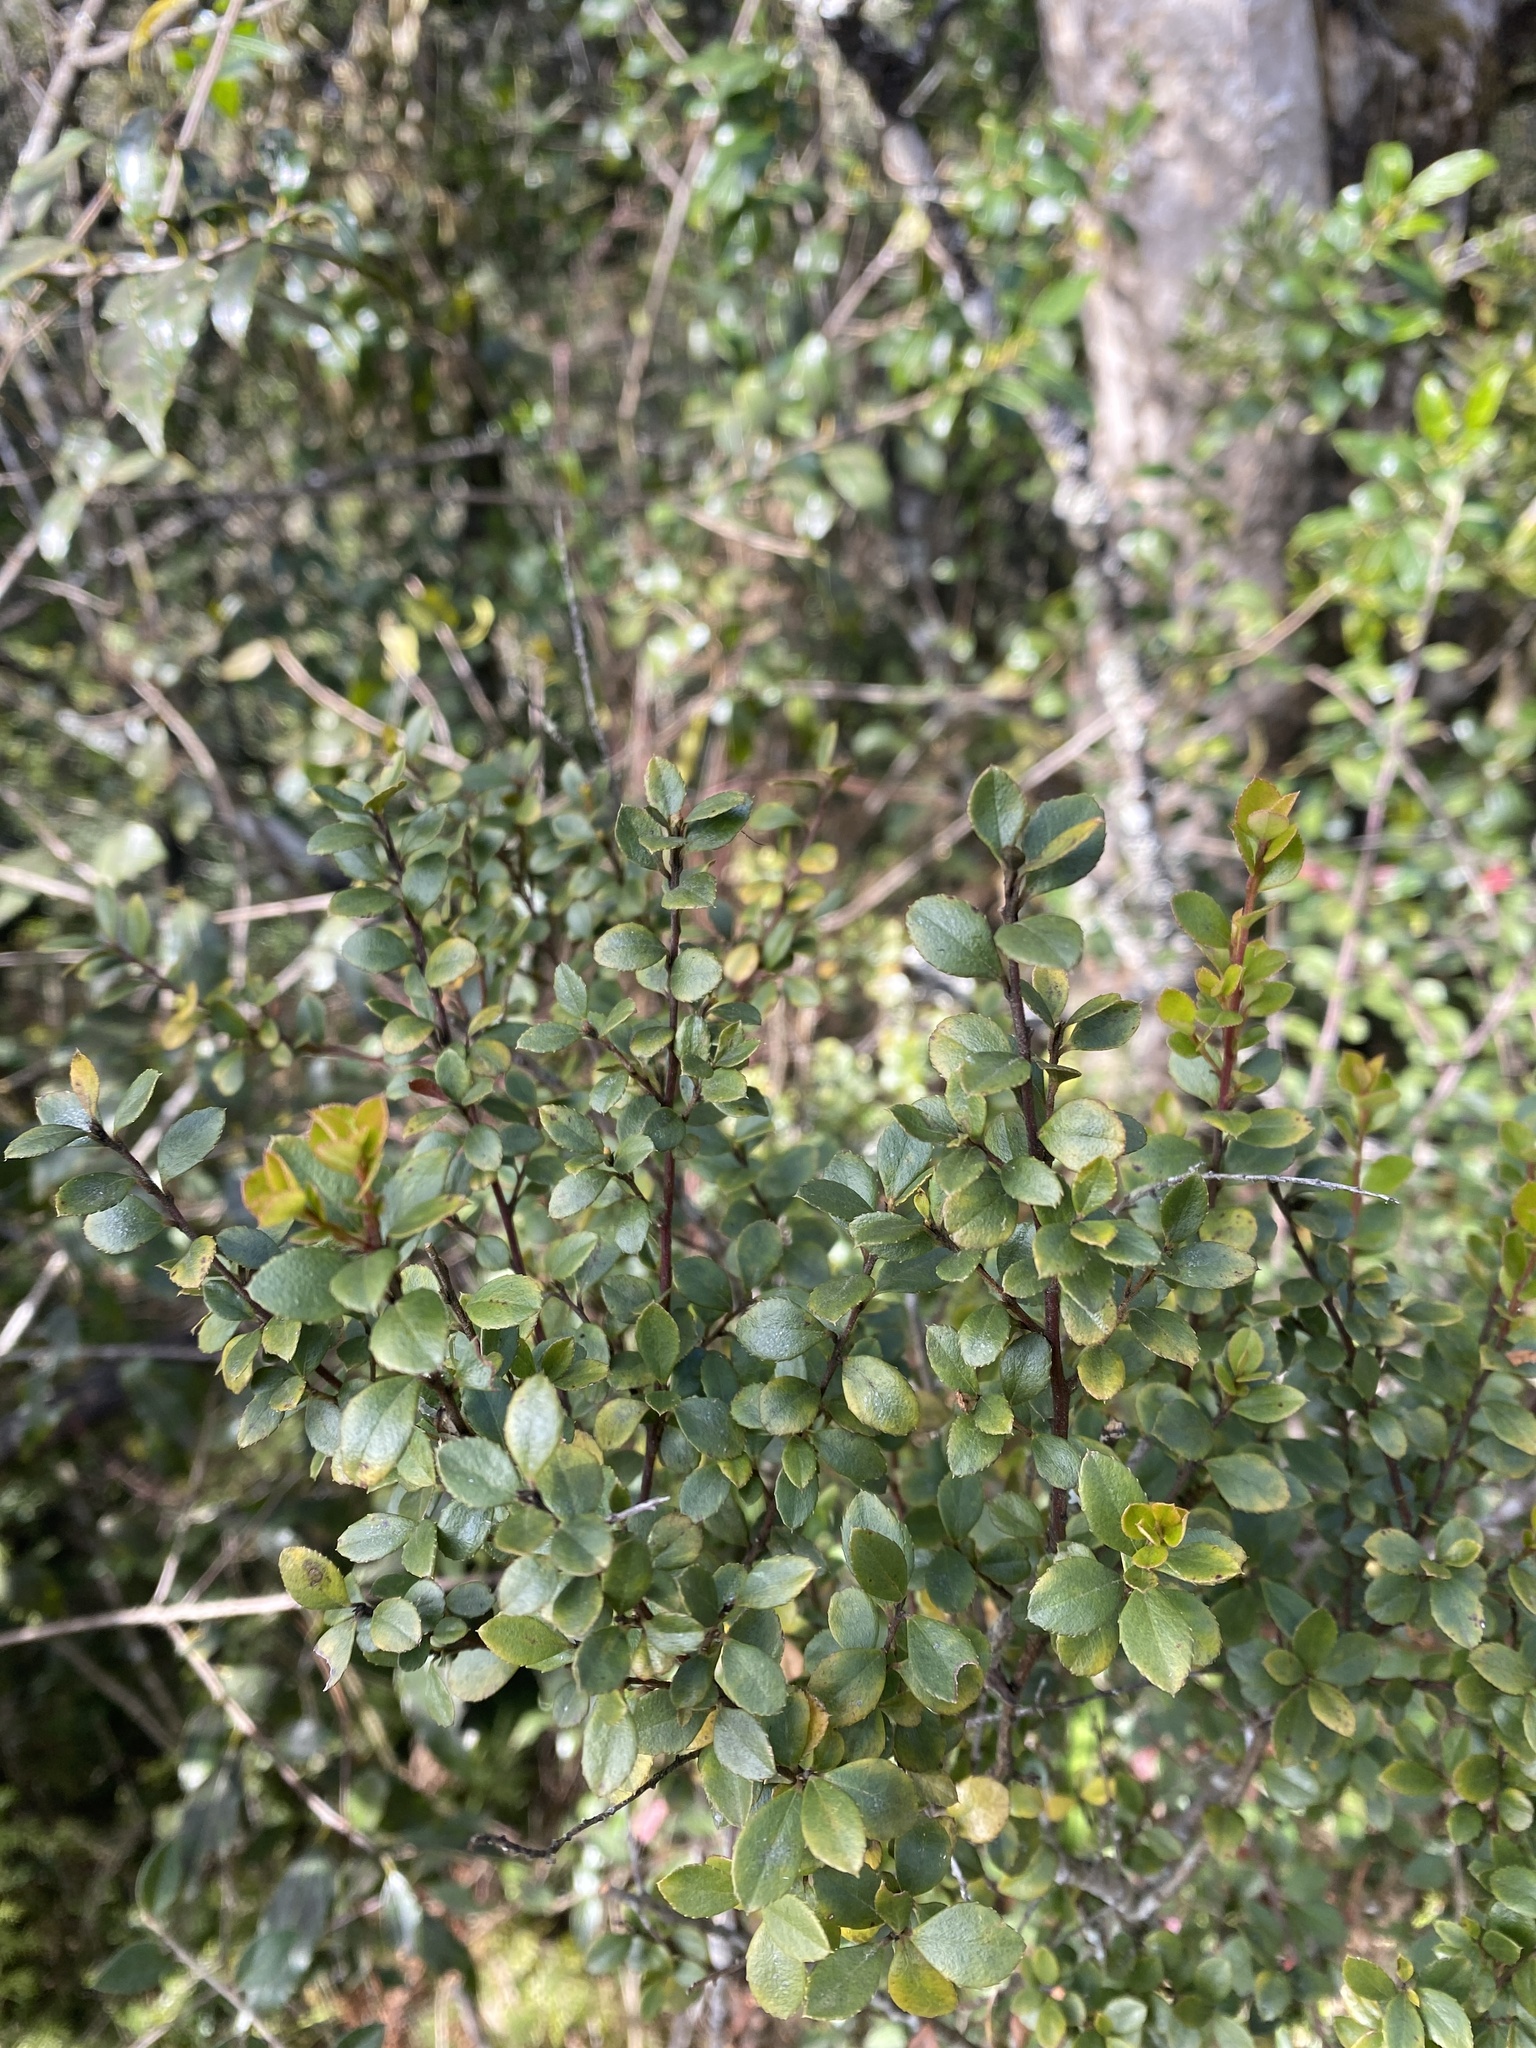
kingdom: Plantae
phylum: Tracheophyta
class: Magnoliopsida
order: Ericales
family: Primulaceae
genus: Myrsine
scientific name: Myrsine africana
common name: African-boxwood
